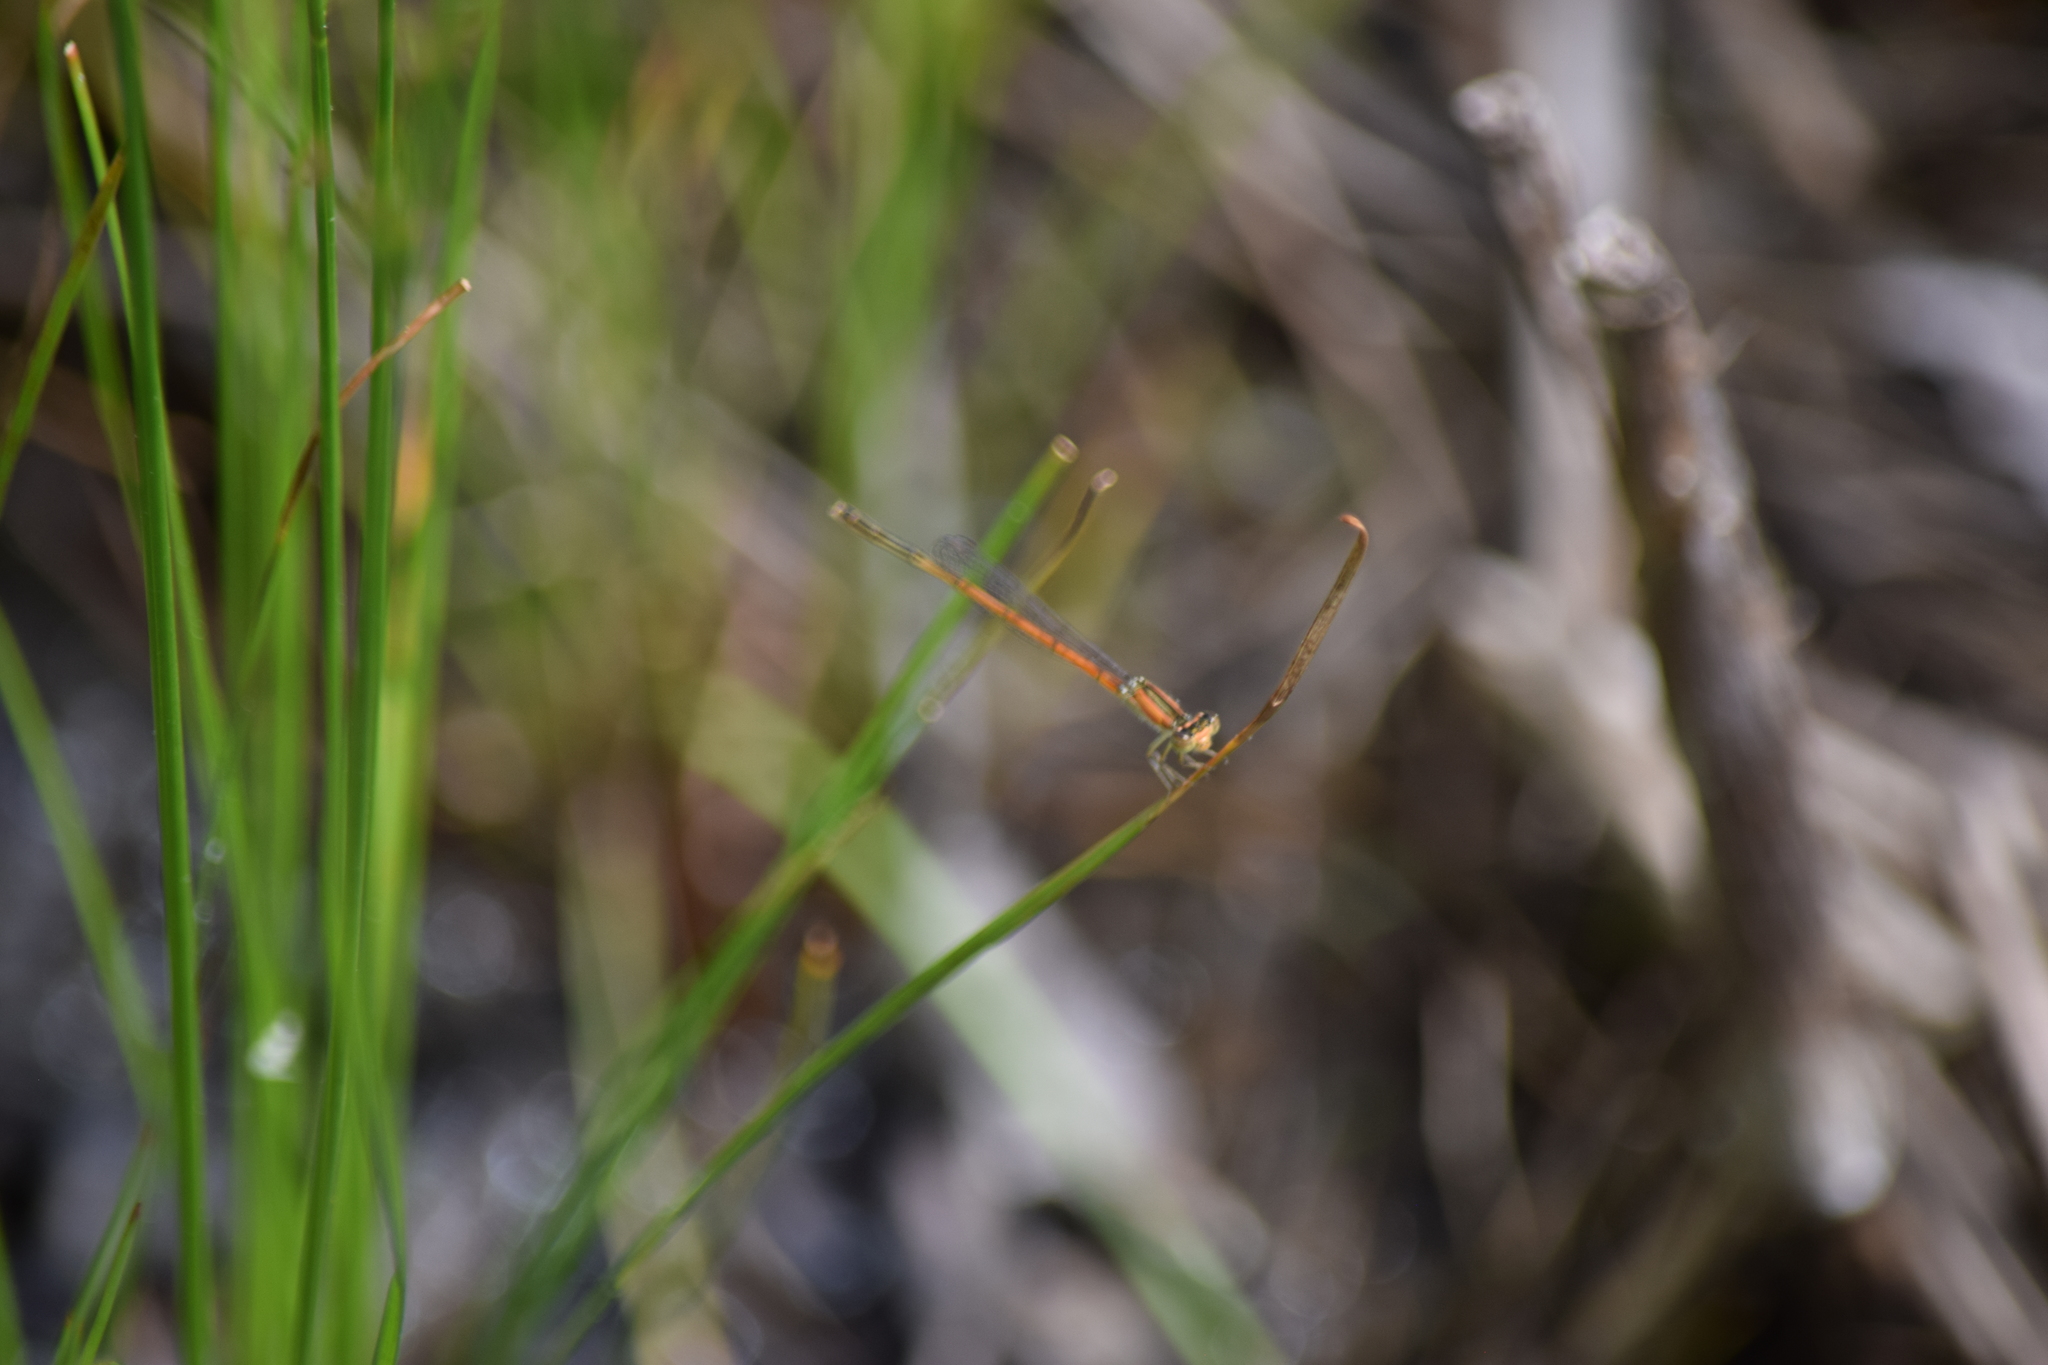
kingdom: Animalia
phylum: Arthropoda
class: Insecta
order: Odonata
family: Coenagrionidae
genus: Ischnura
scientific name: Ischnura hastata
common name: Citrine forktail
